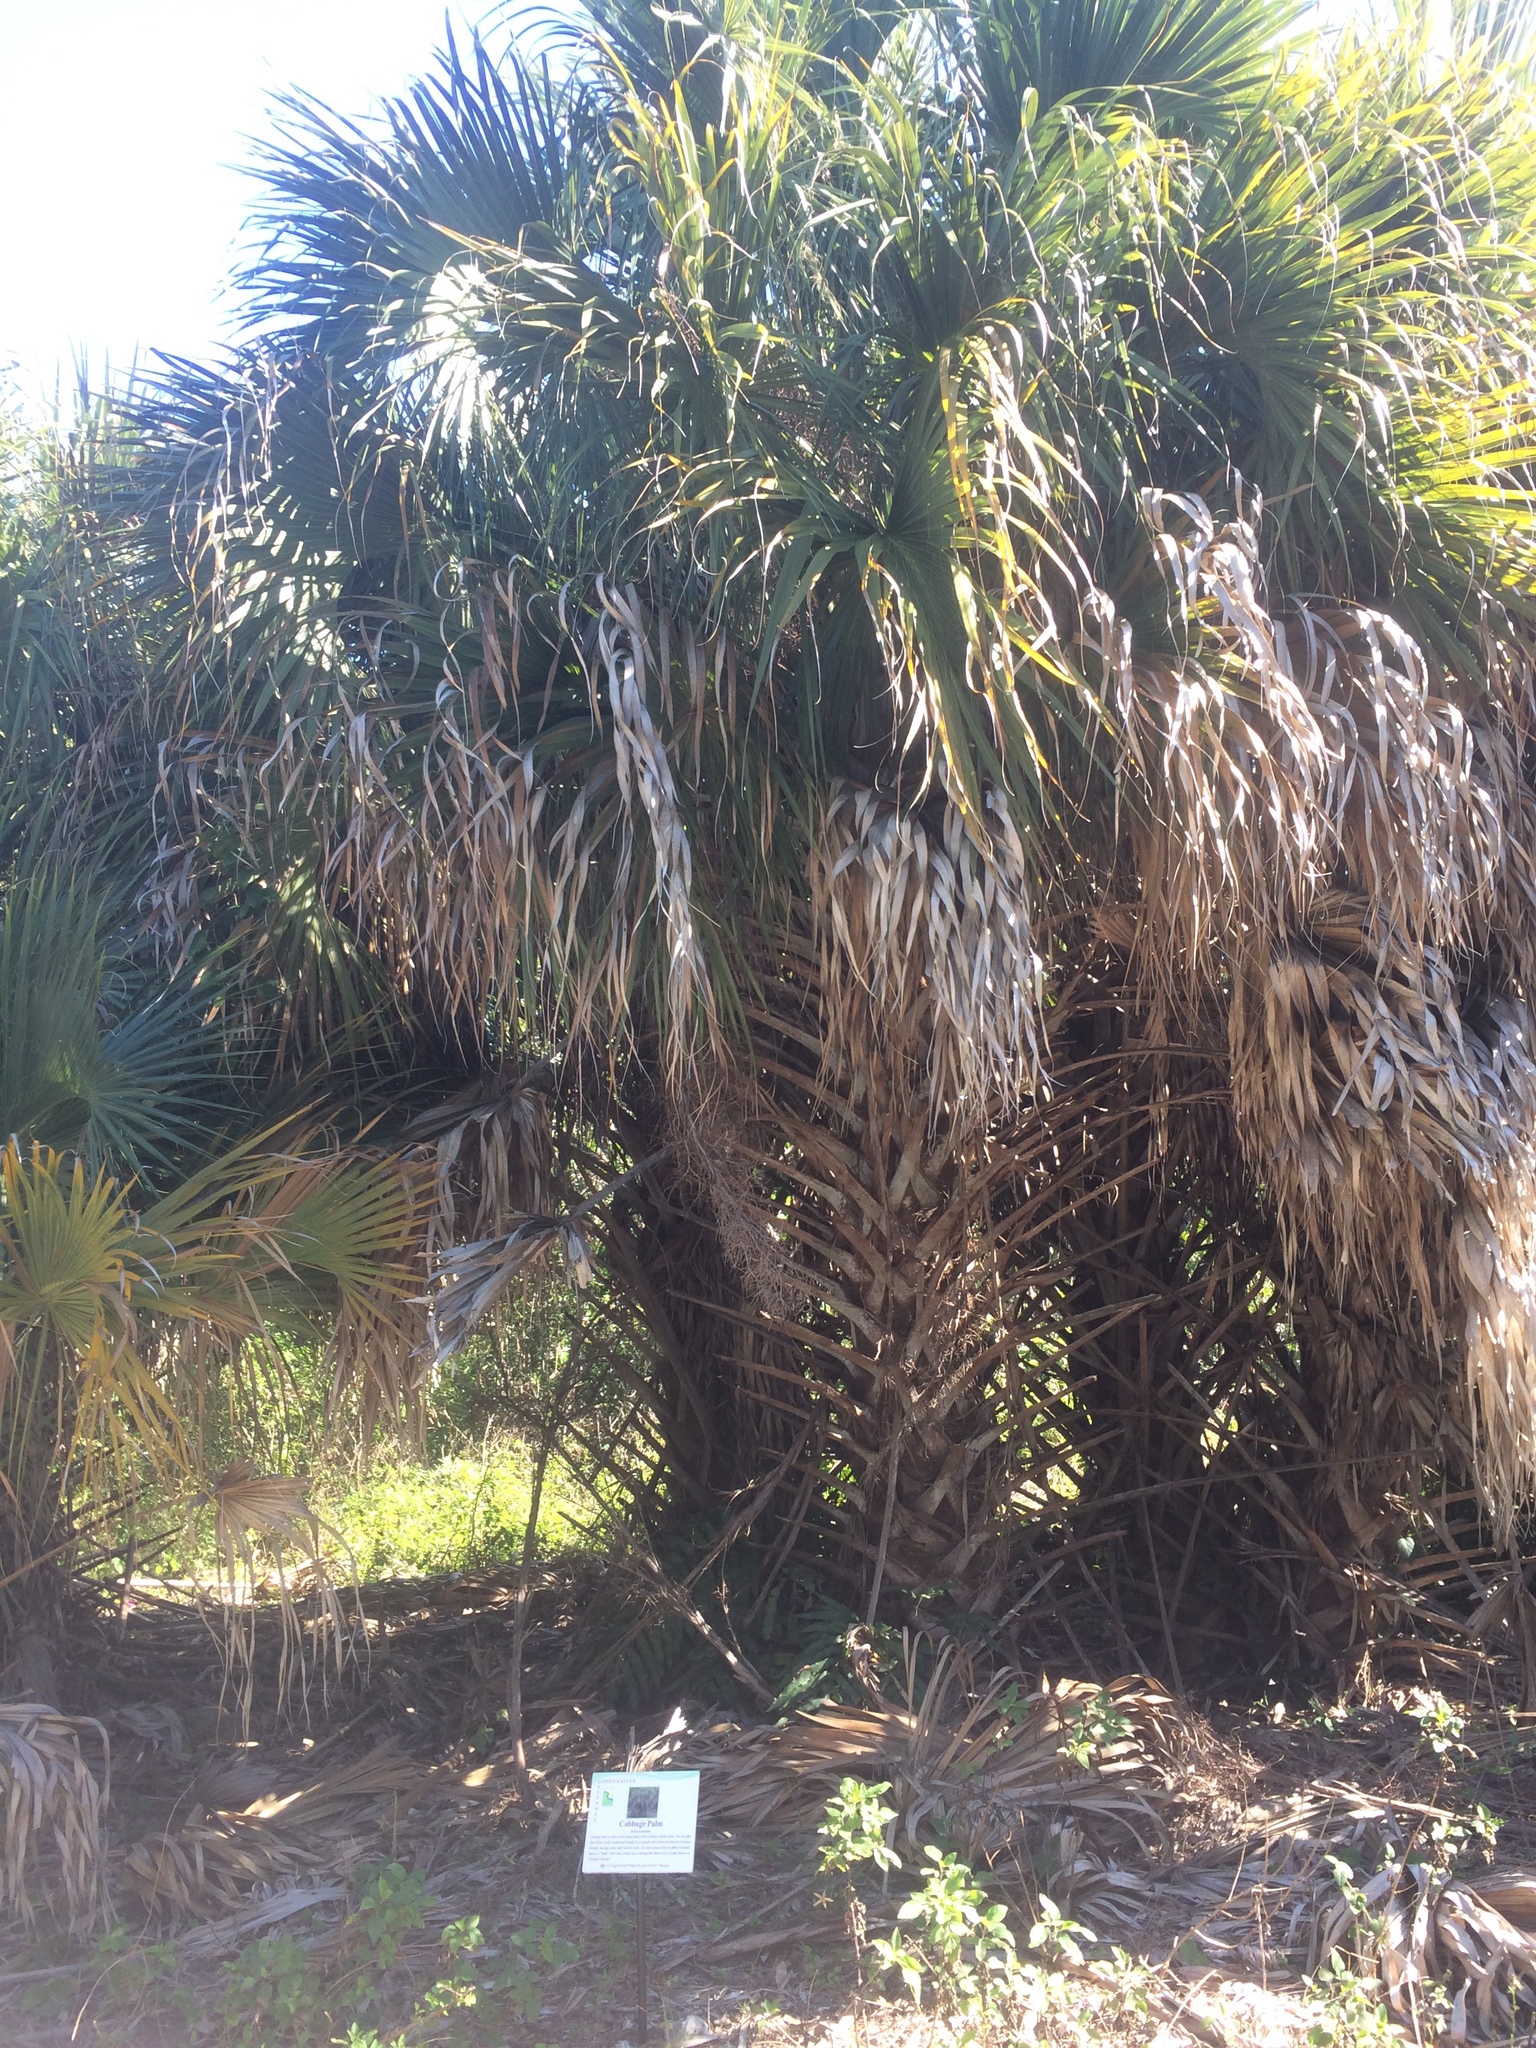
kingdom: Plantae
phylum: Tracheophyta
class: Liliopsida
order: Arecales
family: Arecaceae
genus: Sabal
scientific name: Sabal palmetto
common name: Blue palmetto
